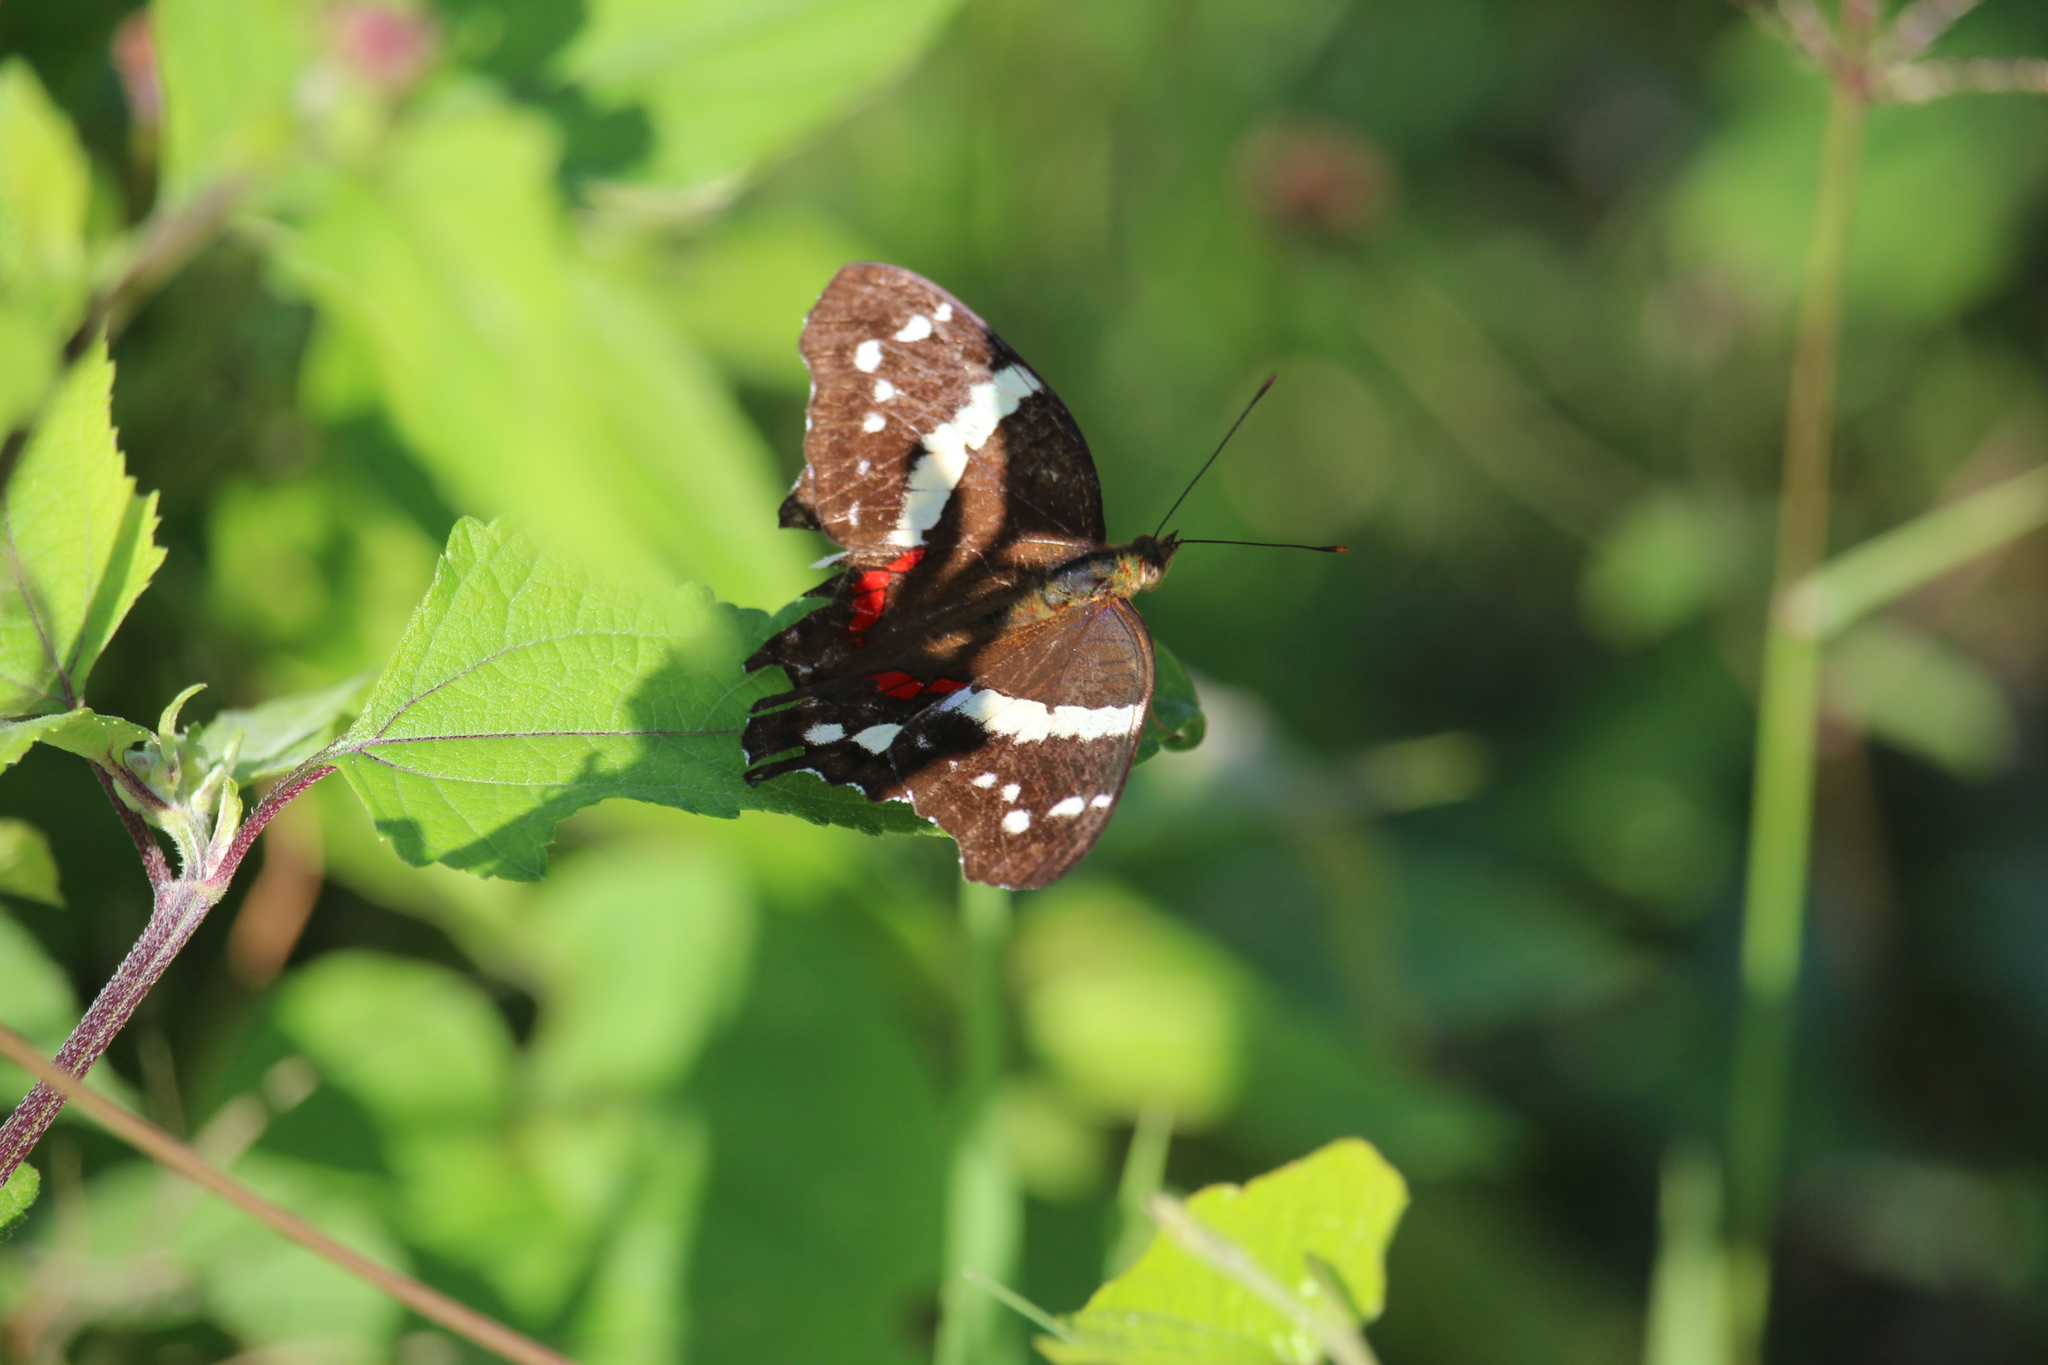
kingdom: Animalia
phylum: Arthropoda
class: Insecta
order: Lepidoptera
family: Nymphalidae
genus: Anartia
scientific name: Anartia fatima
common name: Banded peacock
